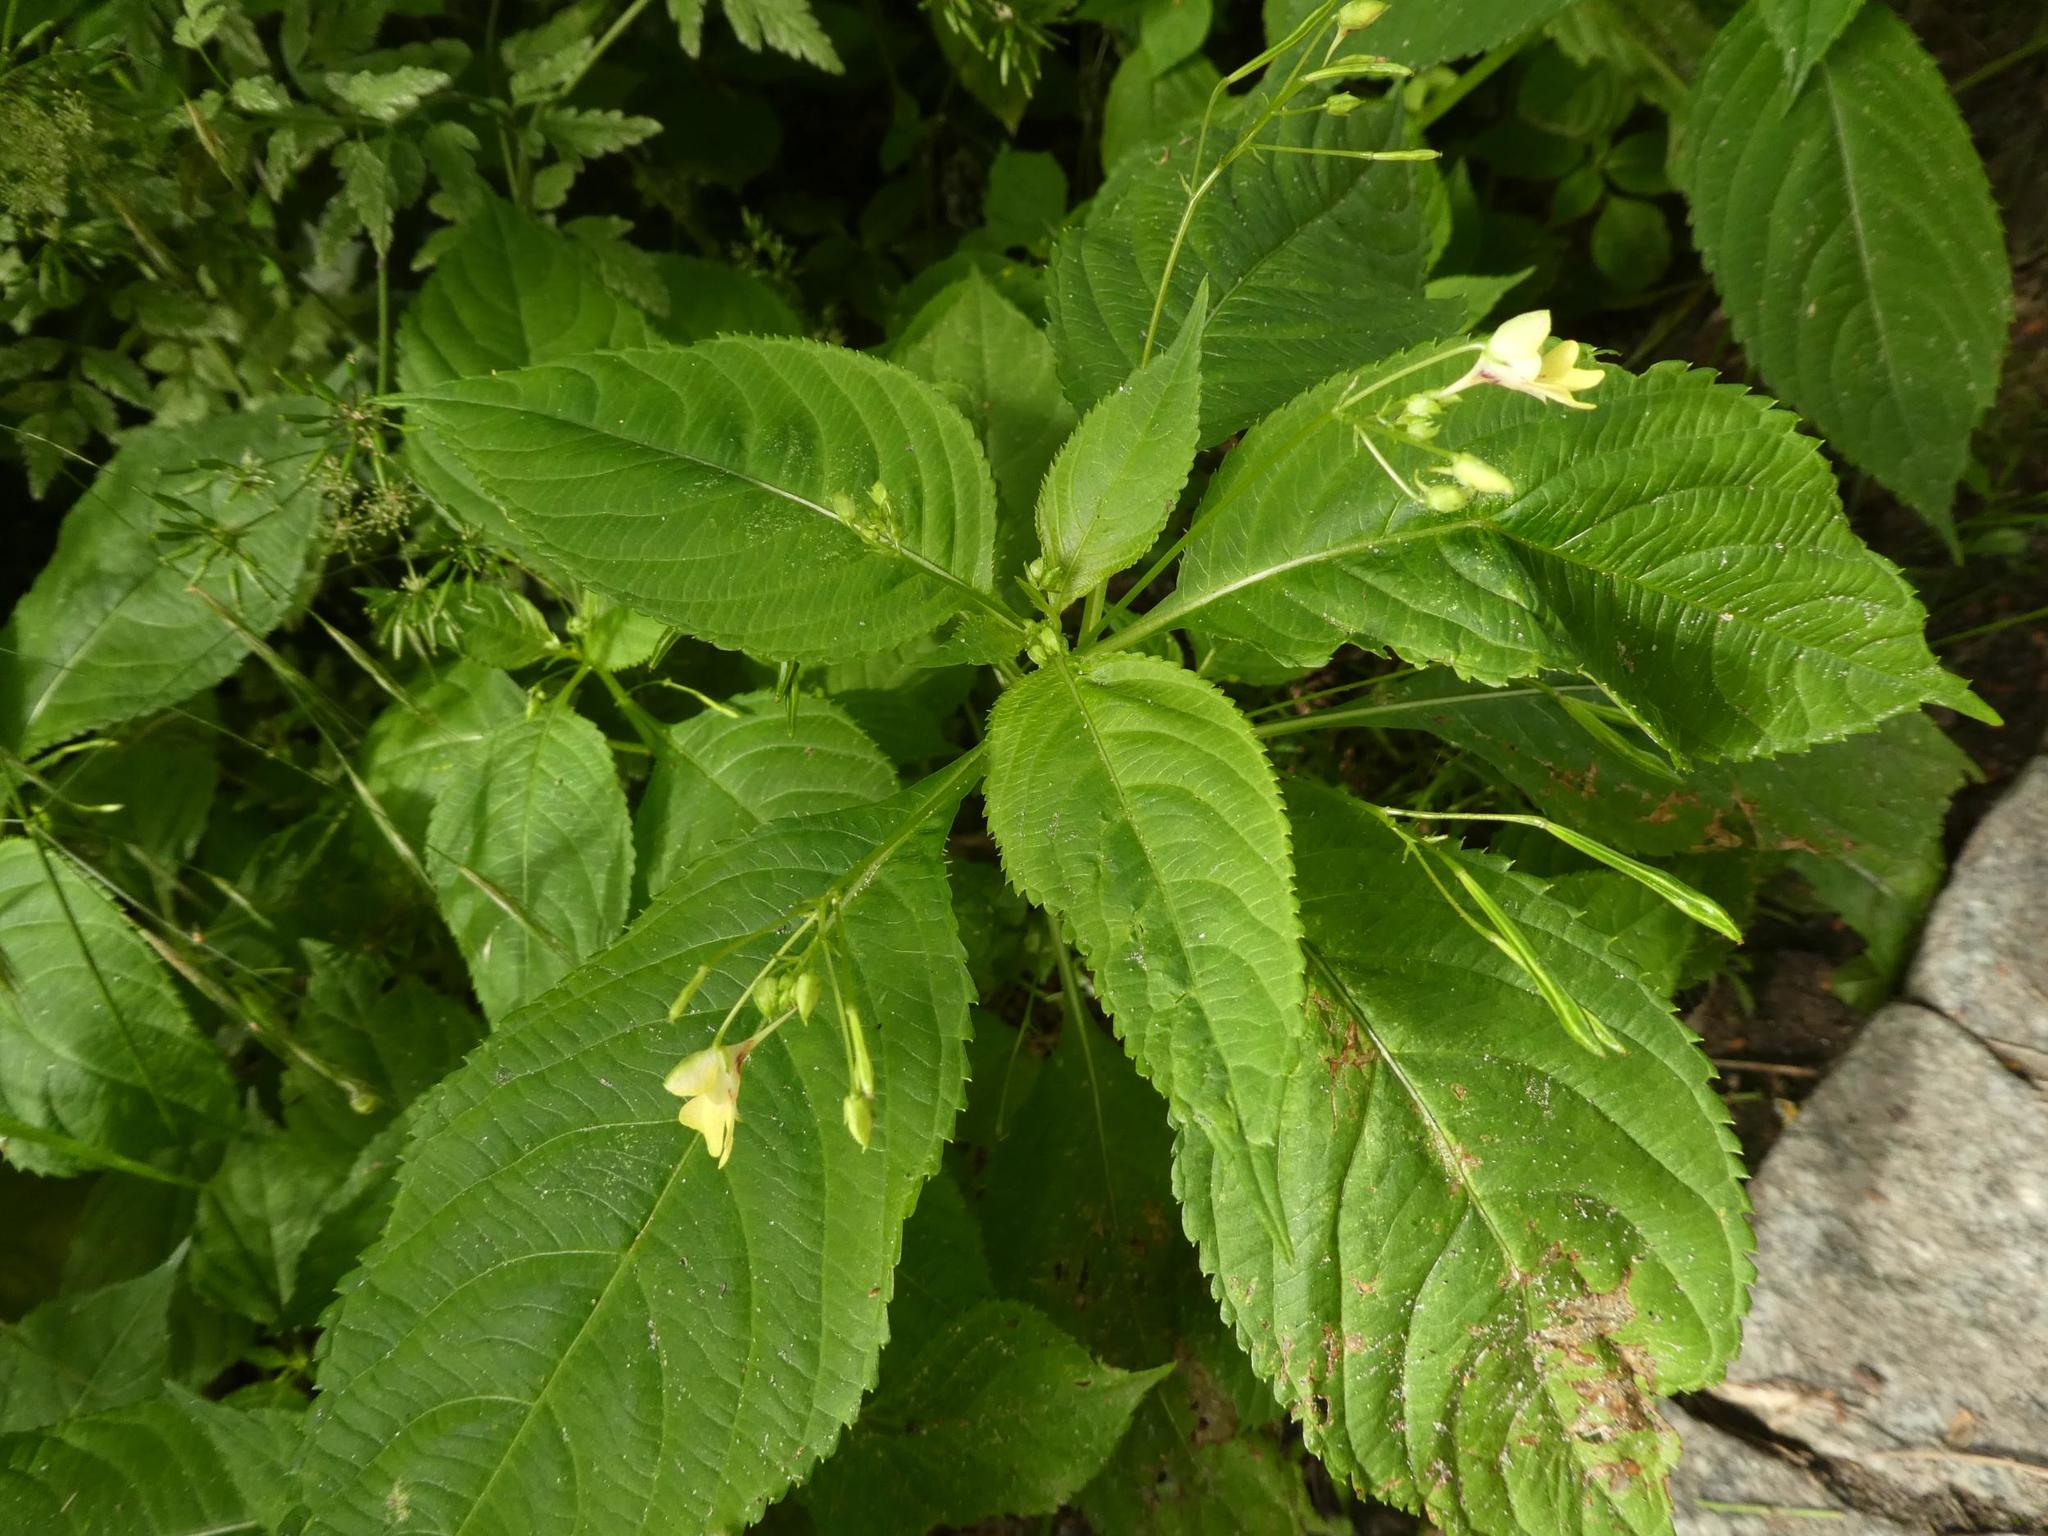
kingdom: Plantae
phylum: Tracheophyta
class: Magnoliopsida
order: Ericales
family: Balsaminaceae
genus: Impatiens
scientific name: Impatiens parviflora
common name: Small balsam
